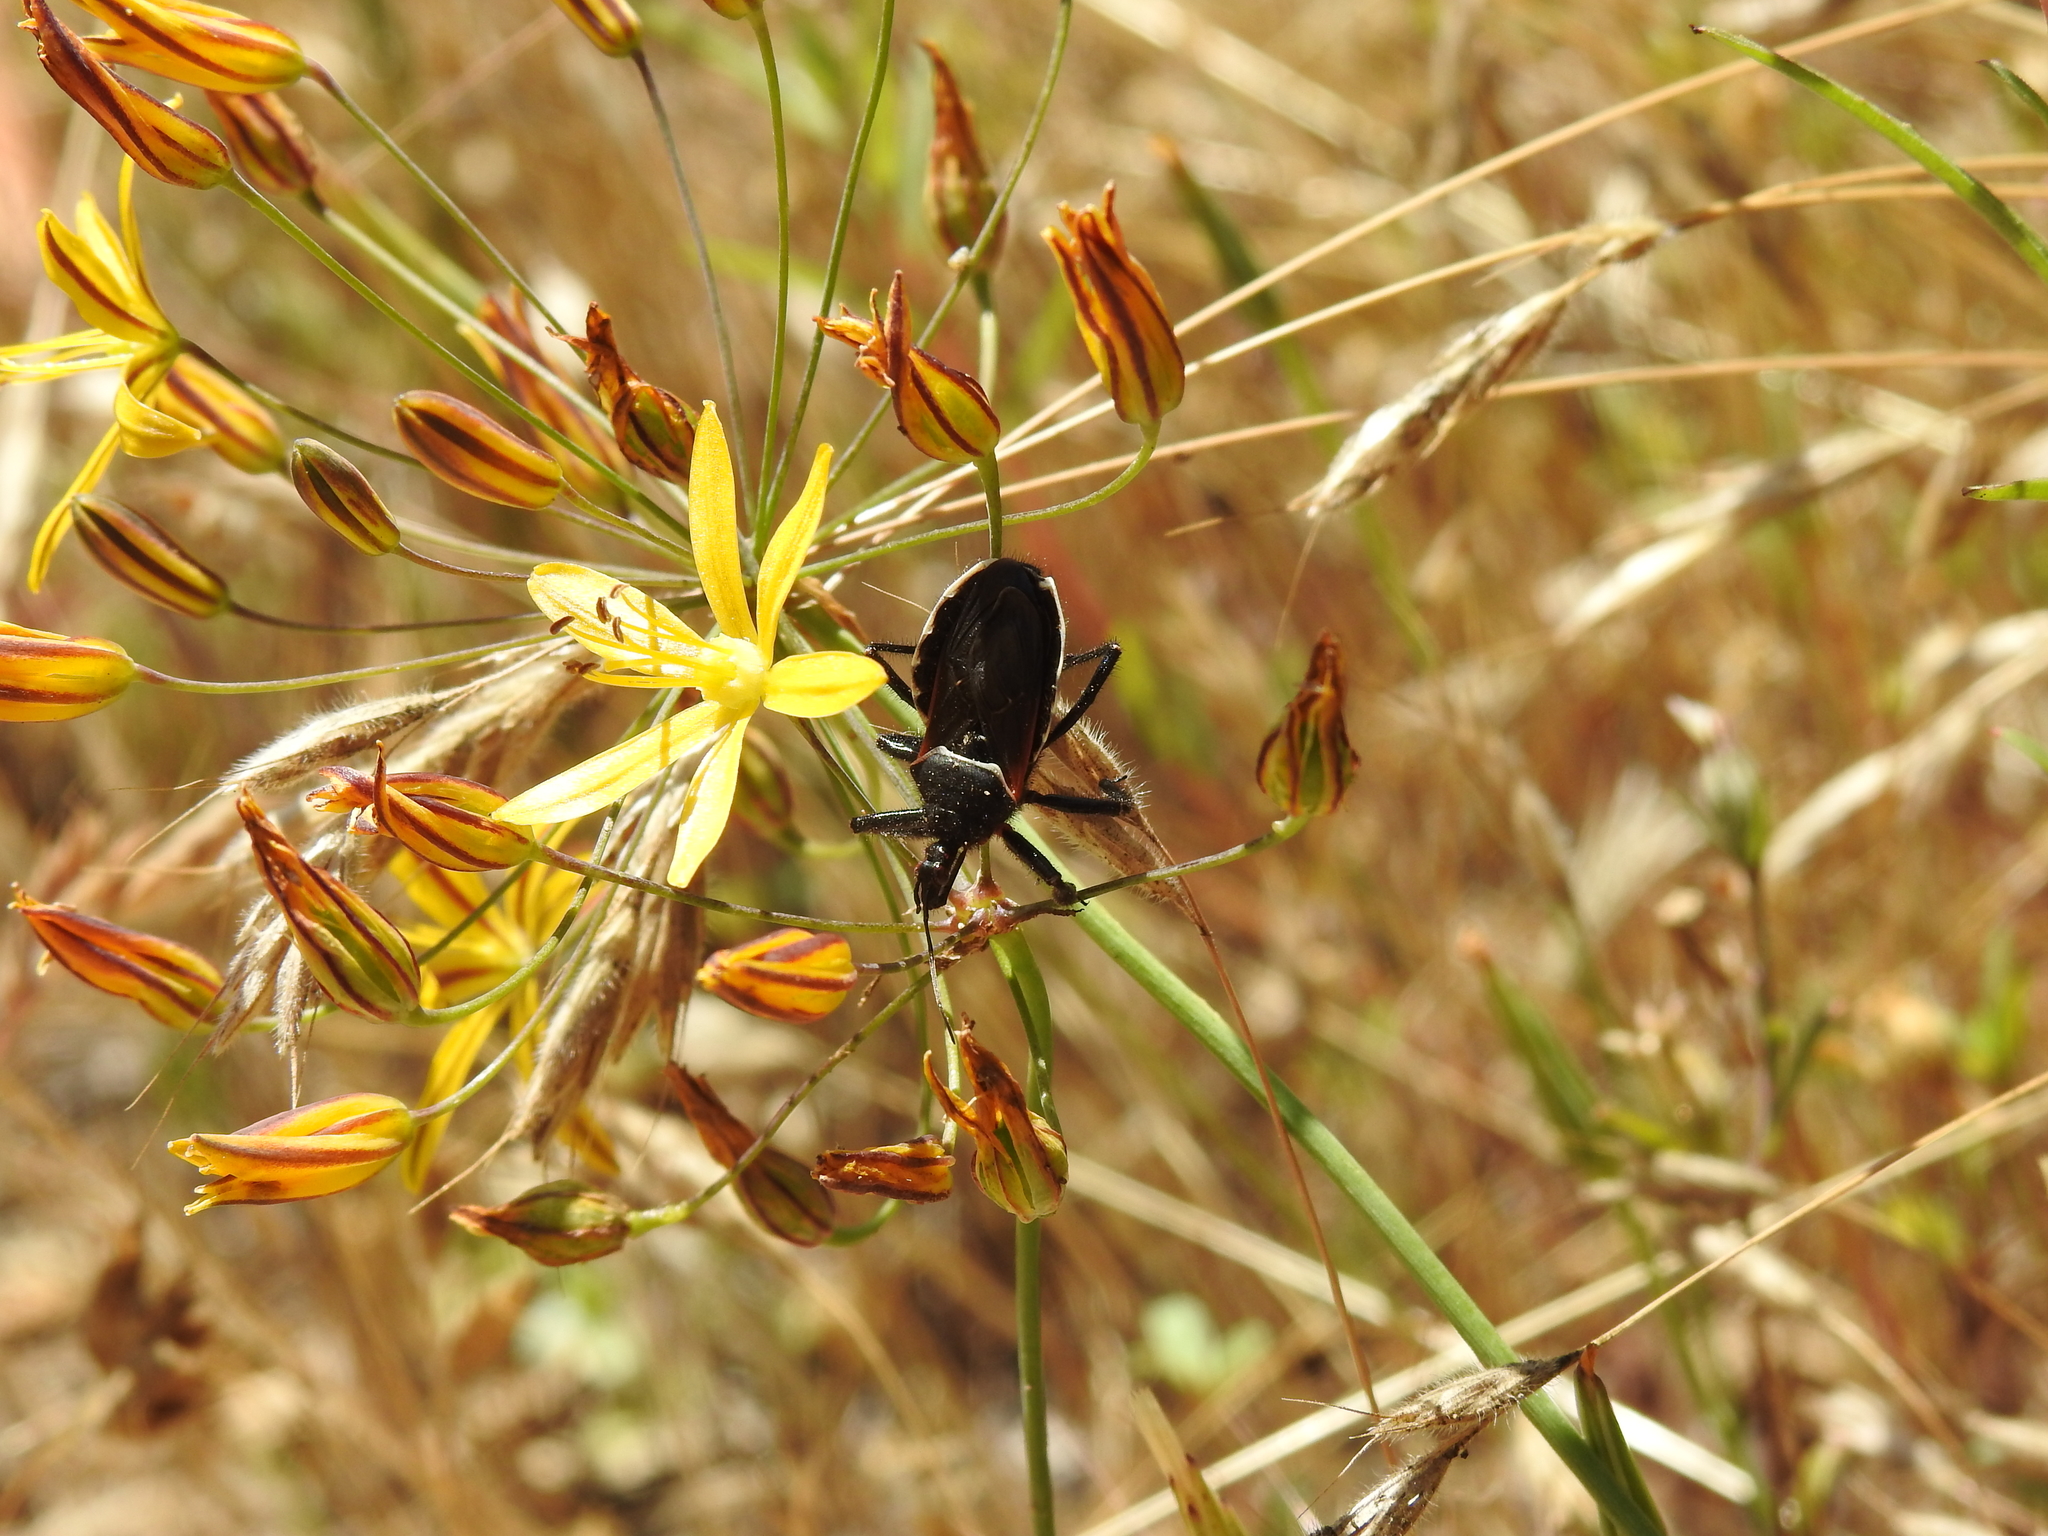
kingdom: Animalia
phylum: Arthropoda
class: Insecta
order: Hemiptera
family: Reduviidae
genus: Apiomerus
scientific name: Apiomerus californicus
